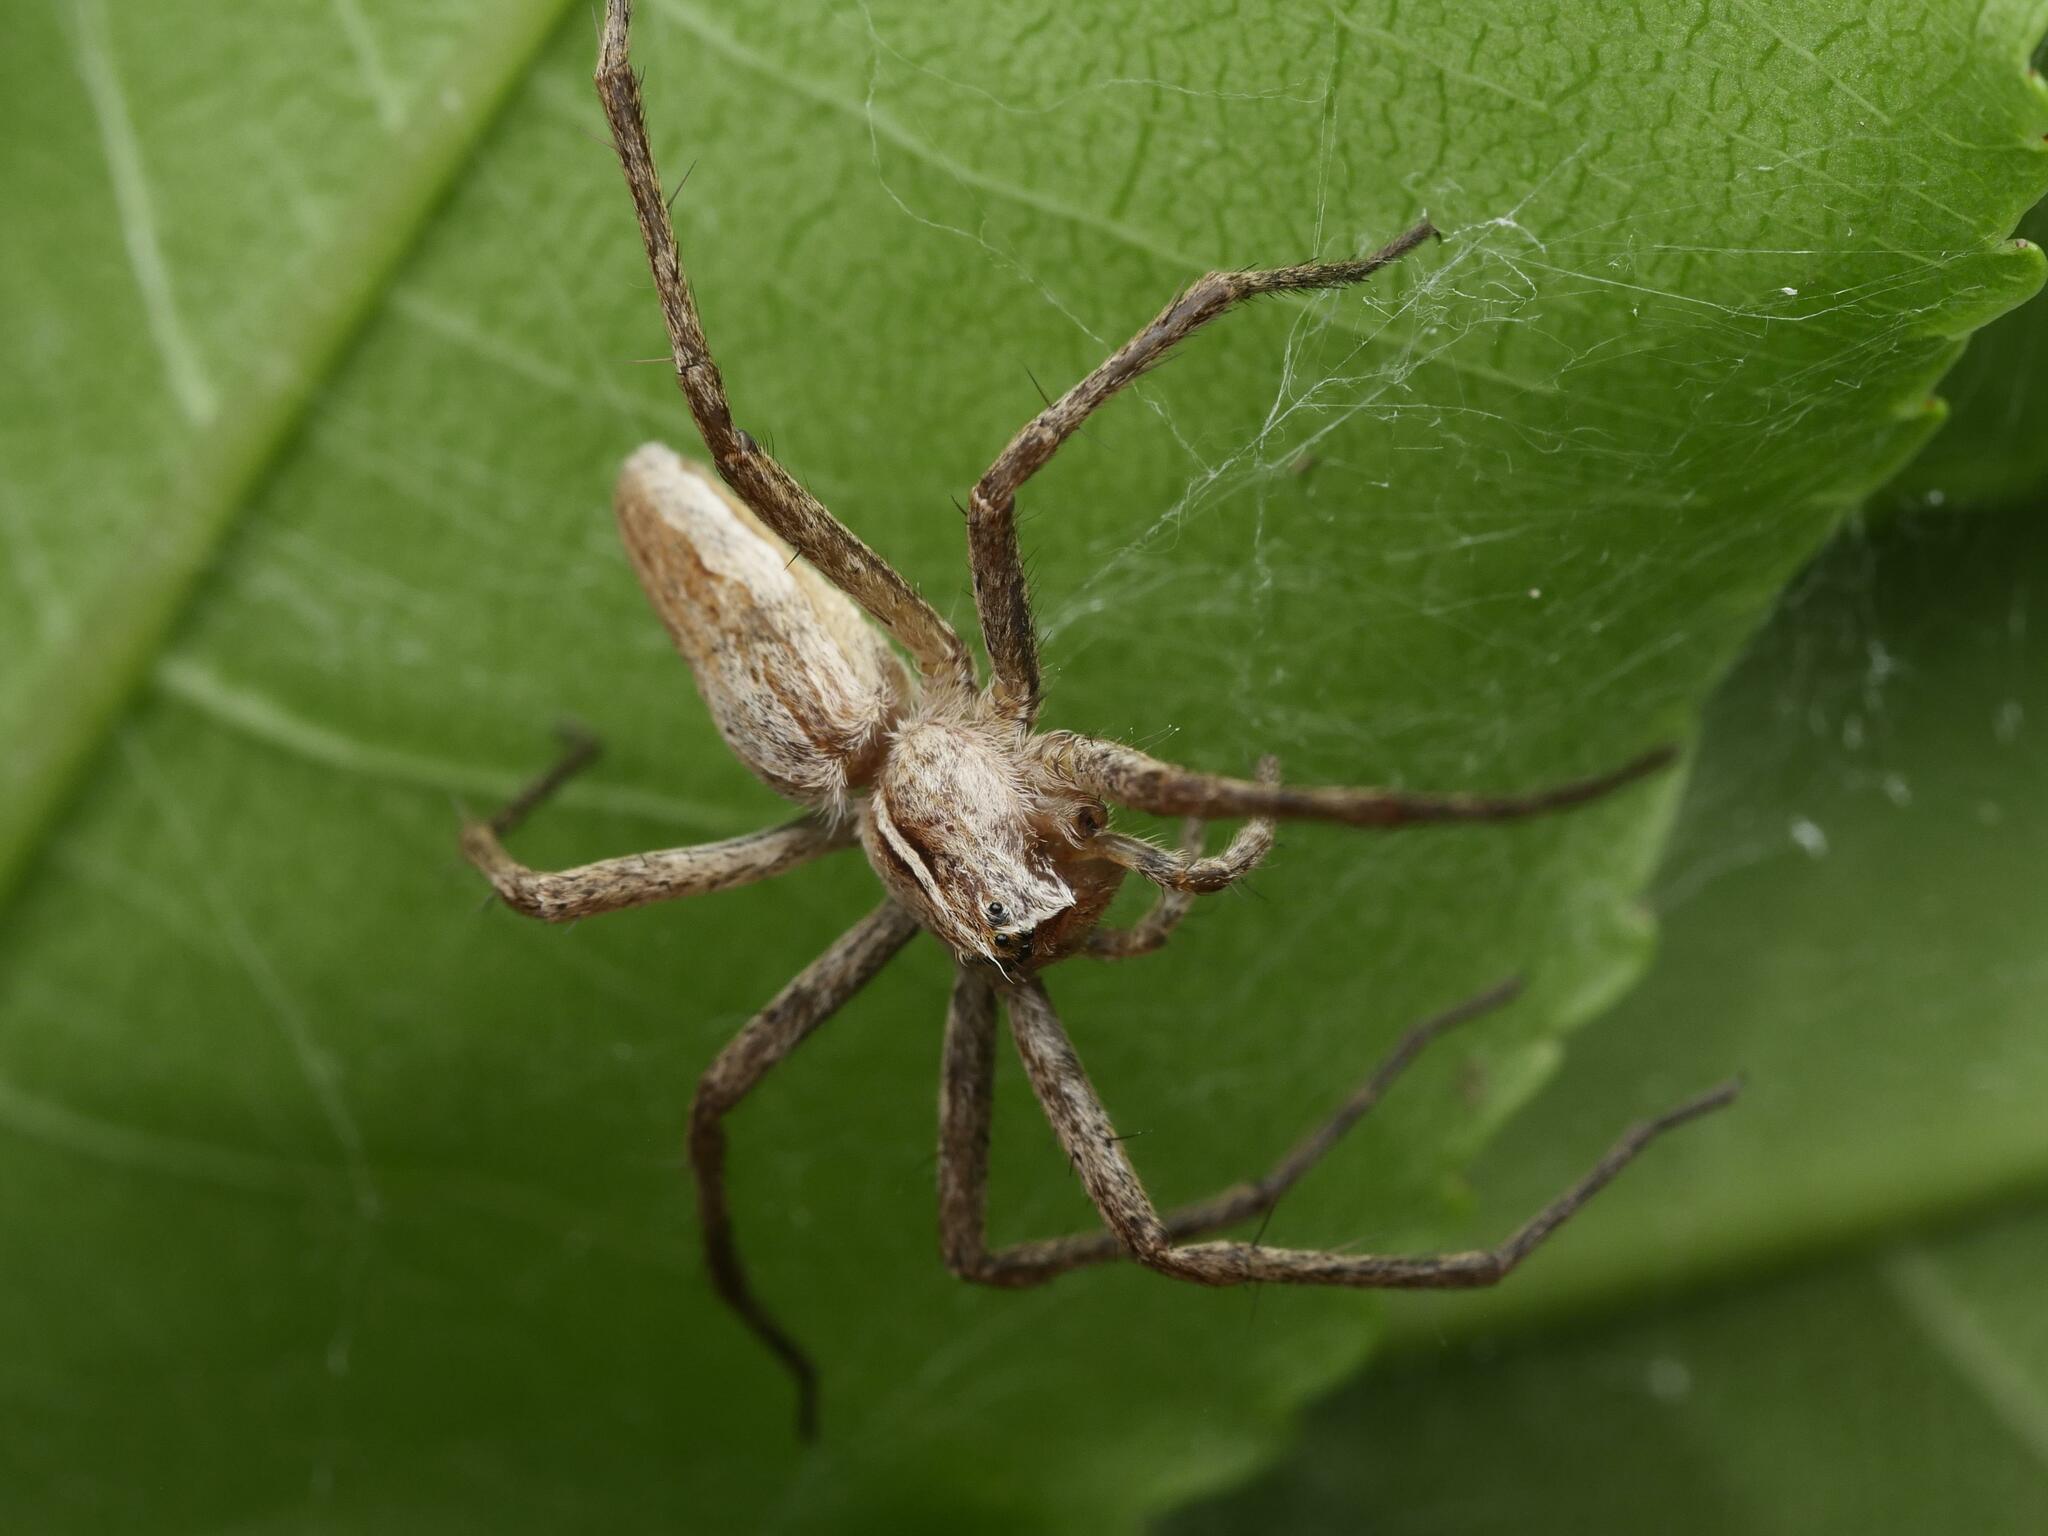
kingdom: Animalia
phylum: Arthropoda
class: Arachnida
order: Araneae
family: Pisauridae
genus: Pisaura
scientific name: Pisaura mirabilis
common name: Tent spider
